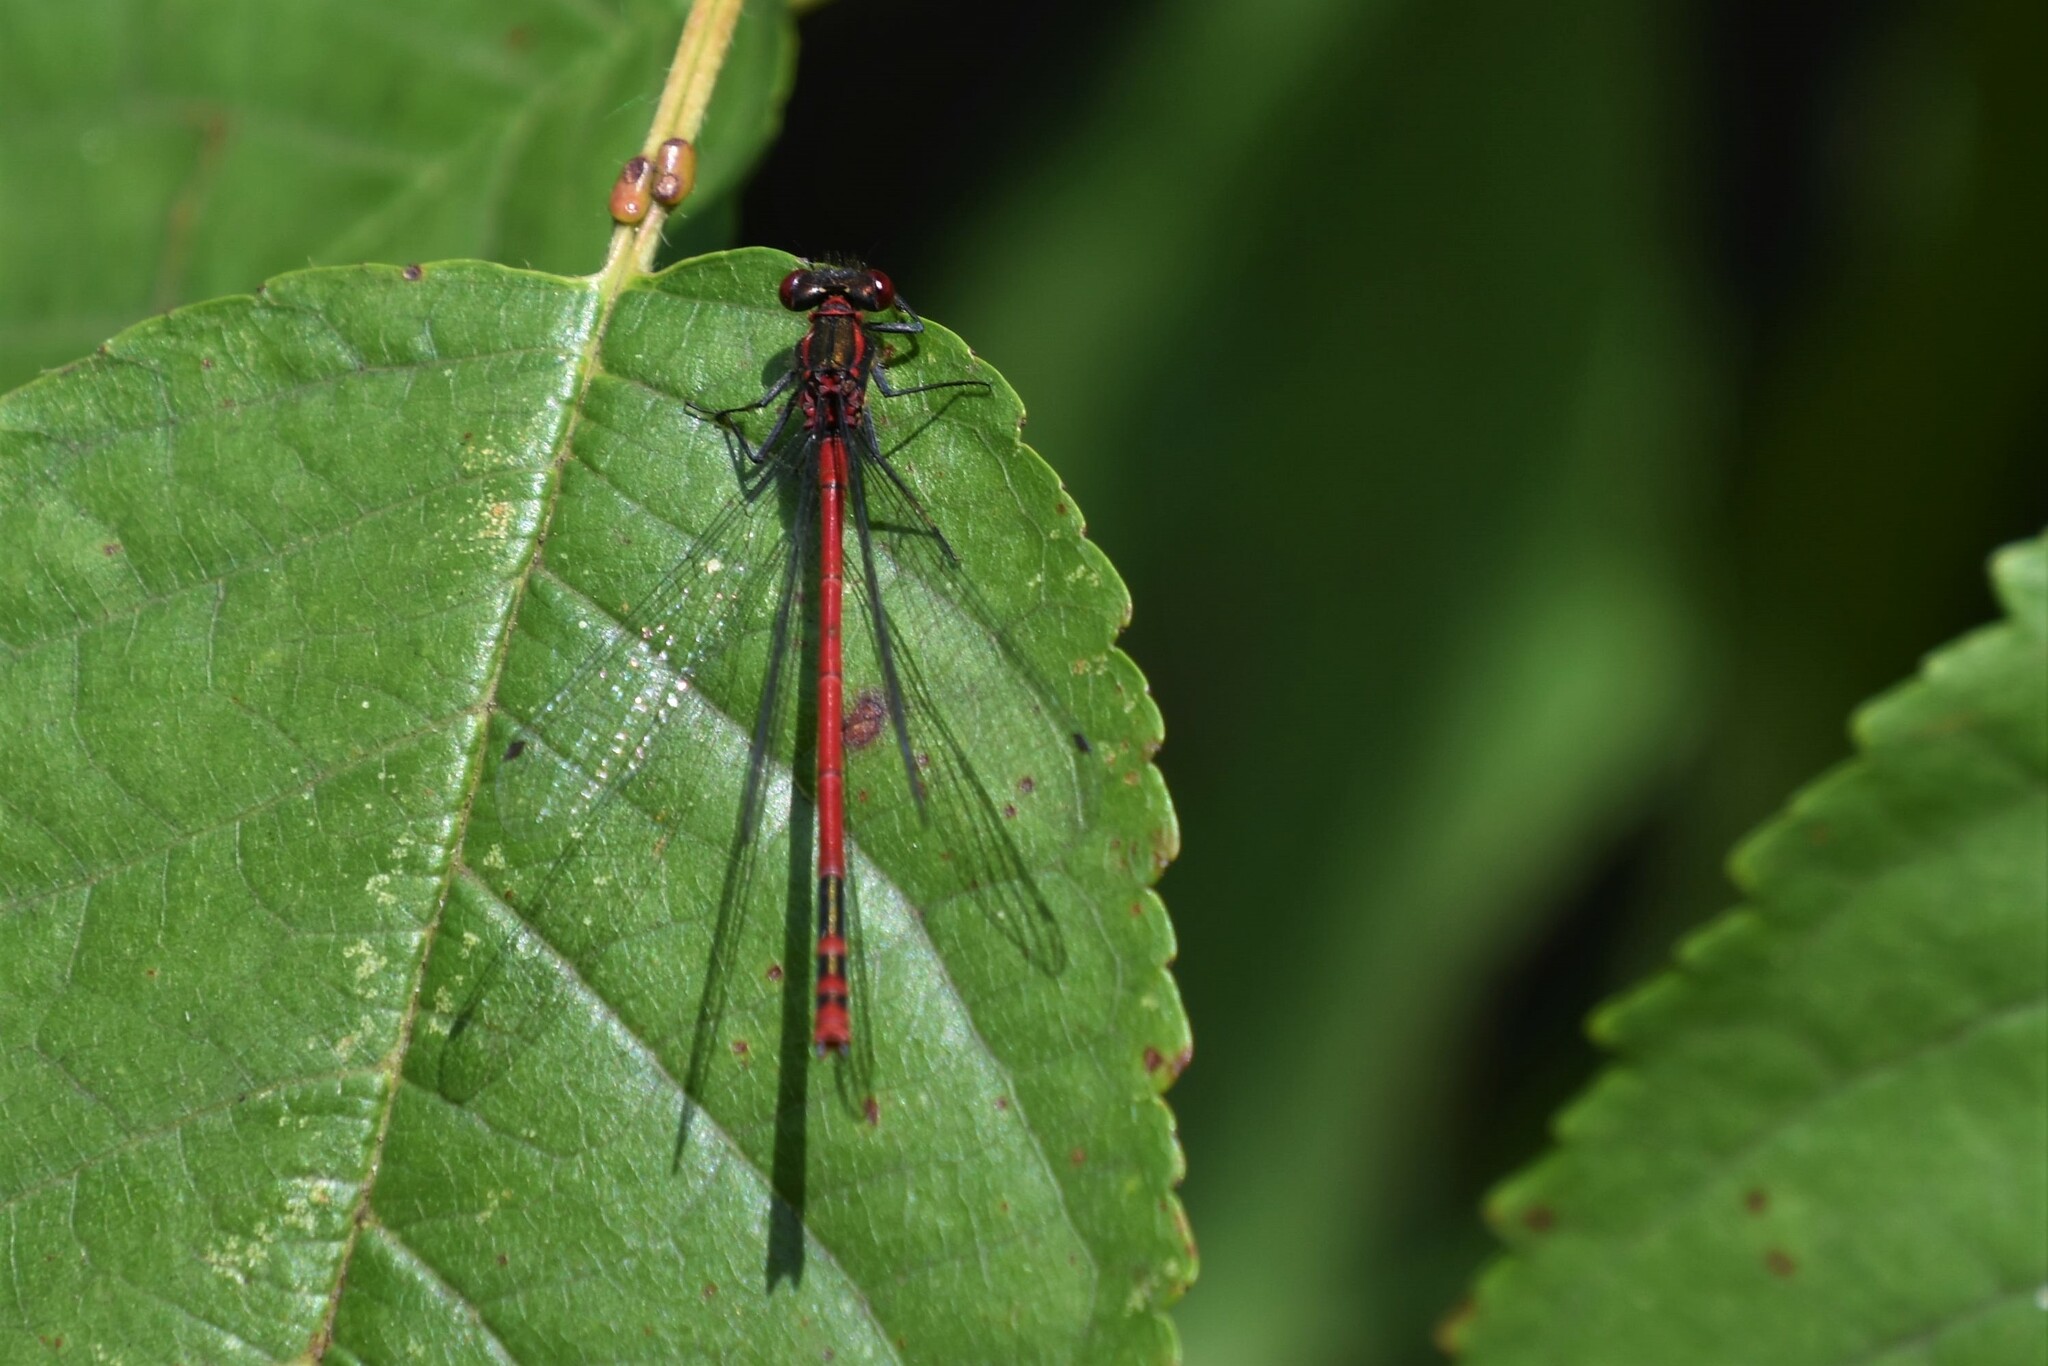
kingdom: Animalia
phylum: Arthropoda
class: Insecta
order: Odonata
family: Coenagrionidae
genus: Pyrrhosoma
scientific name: Pyrrhosoma nymphula
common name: Large red damsel
